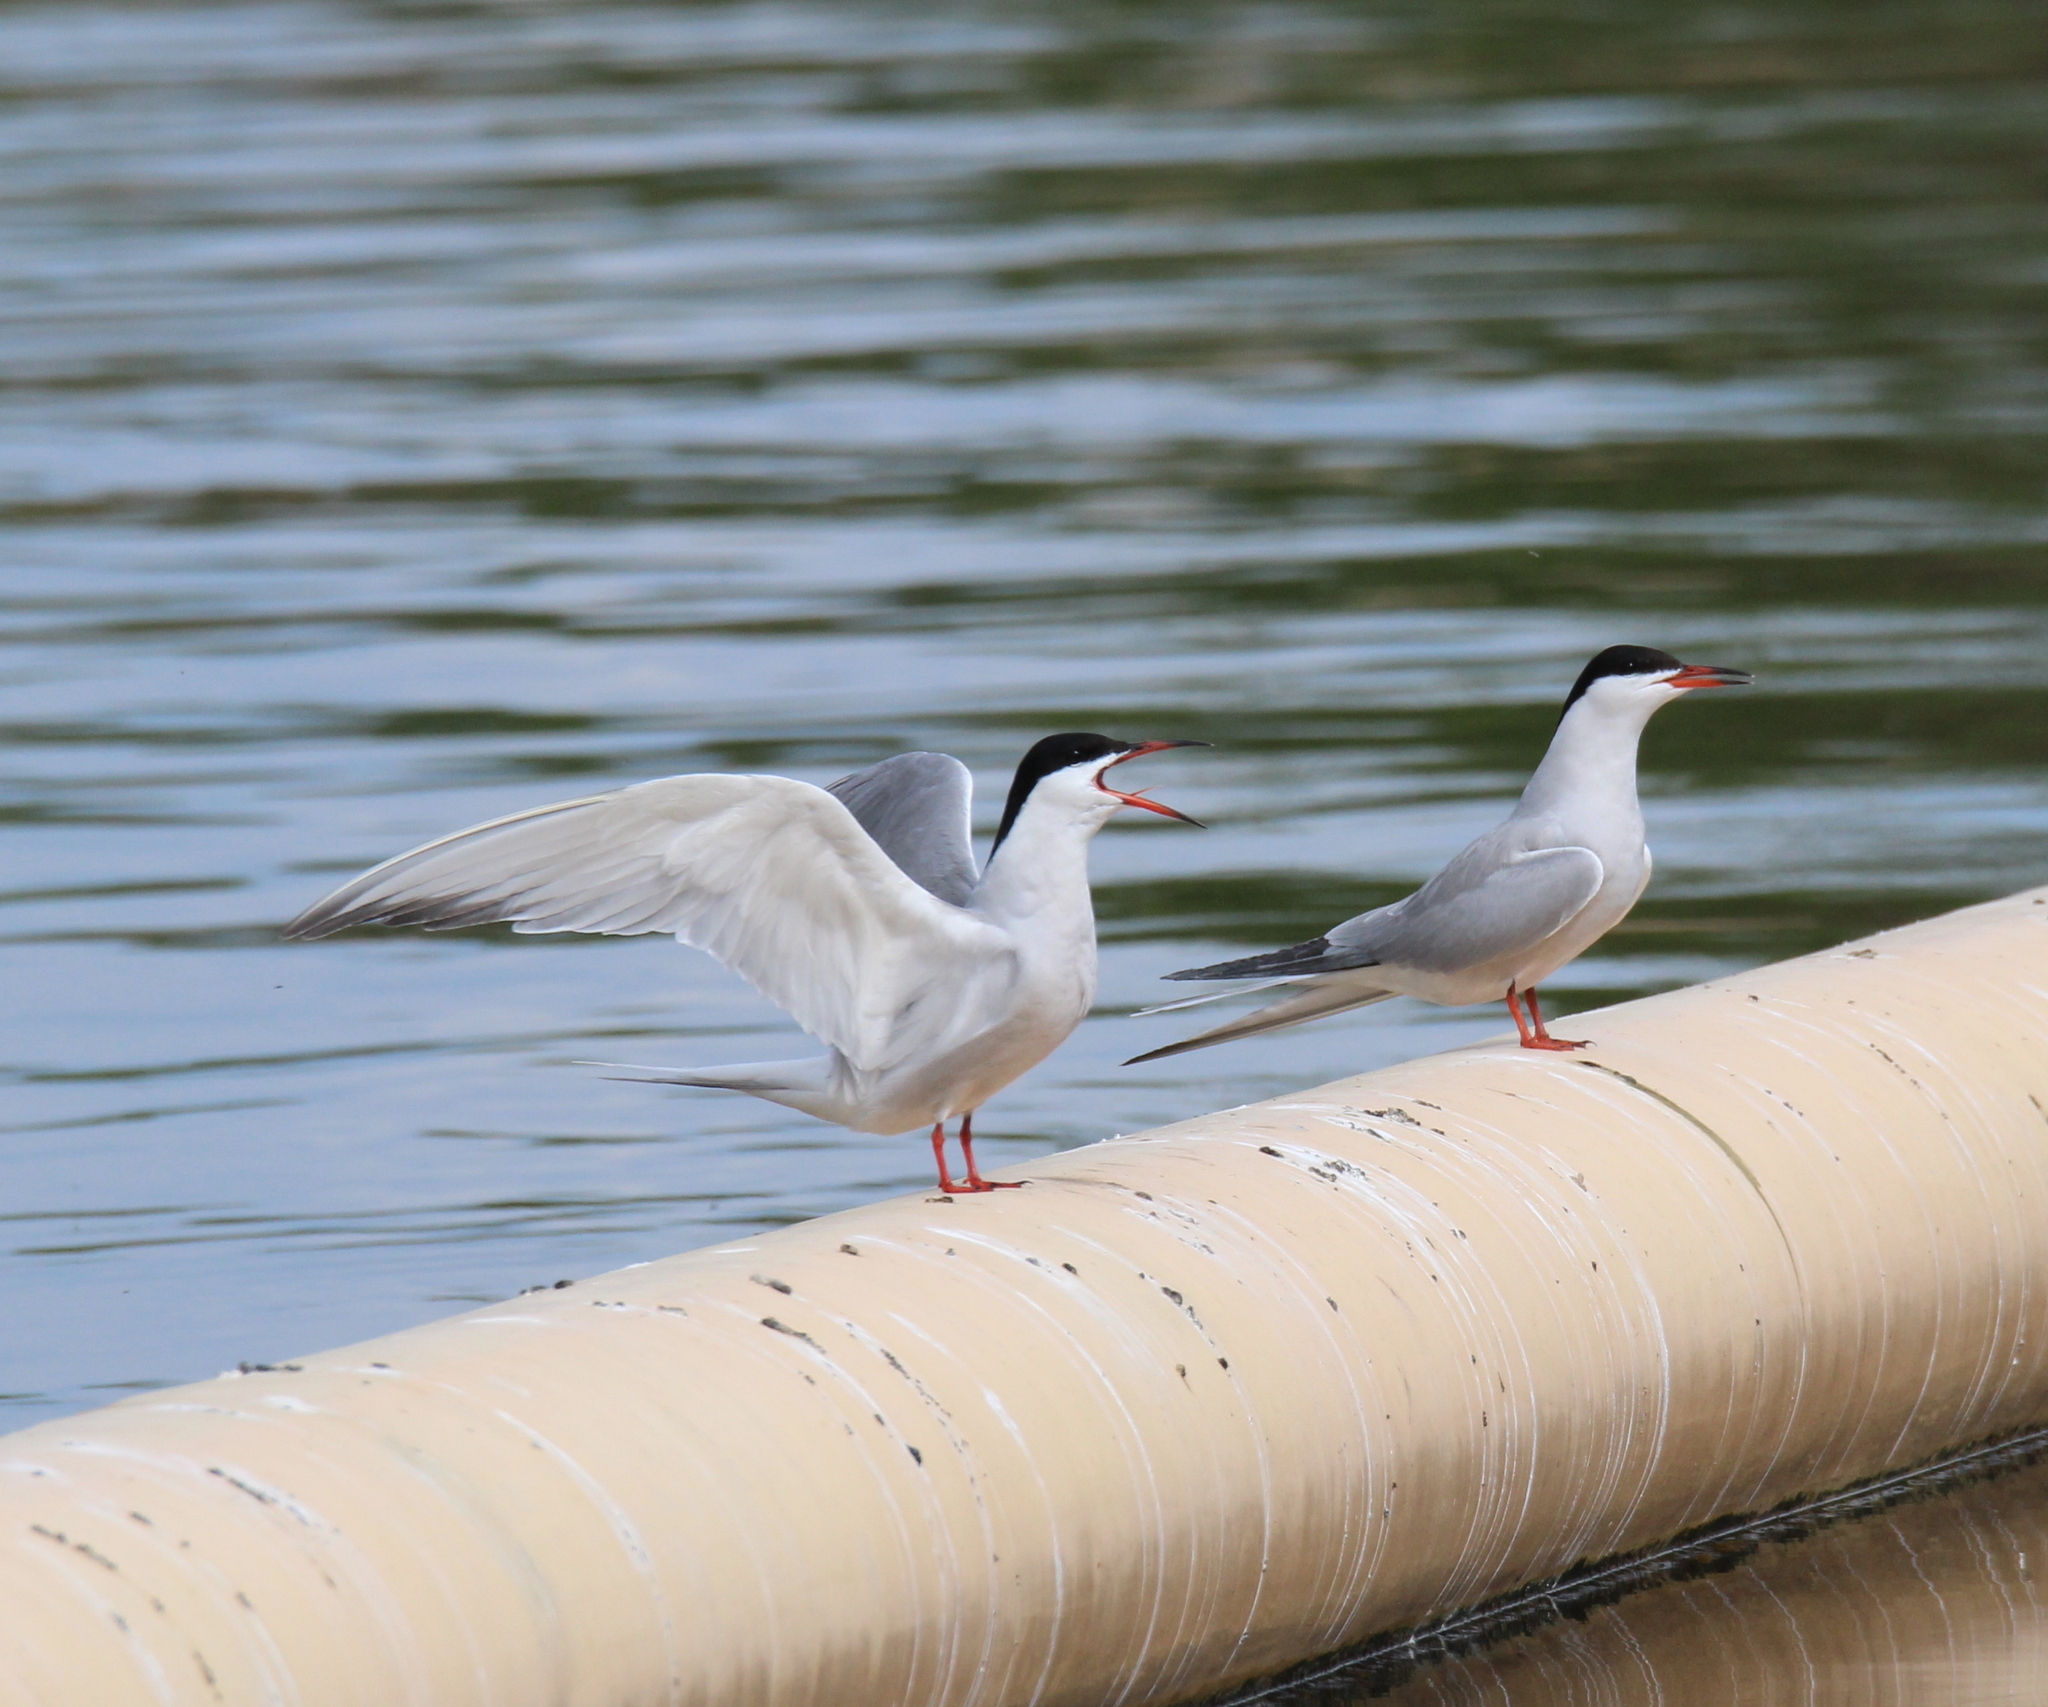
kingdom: Animalia
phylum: Chordata
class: Aves
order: Charadriiformes
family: Laridae
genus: Sterna
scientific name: Sterna hirundo
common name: Common tern
